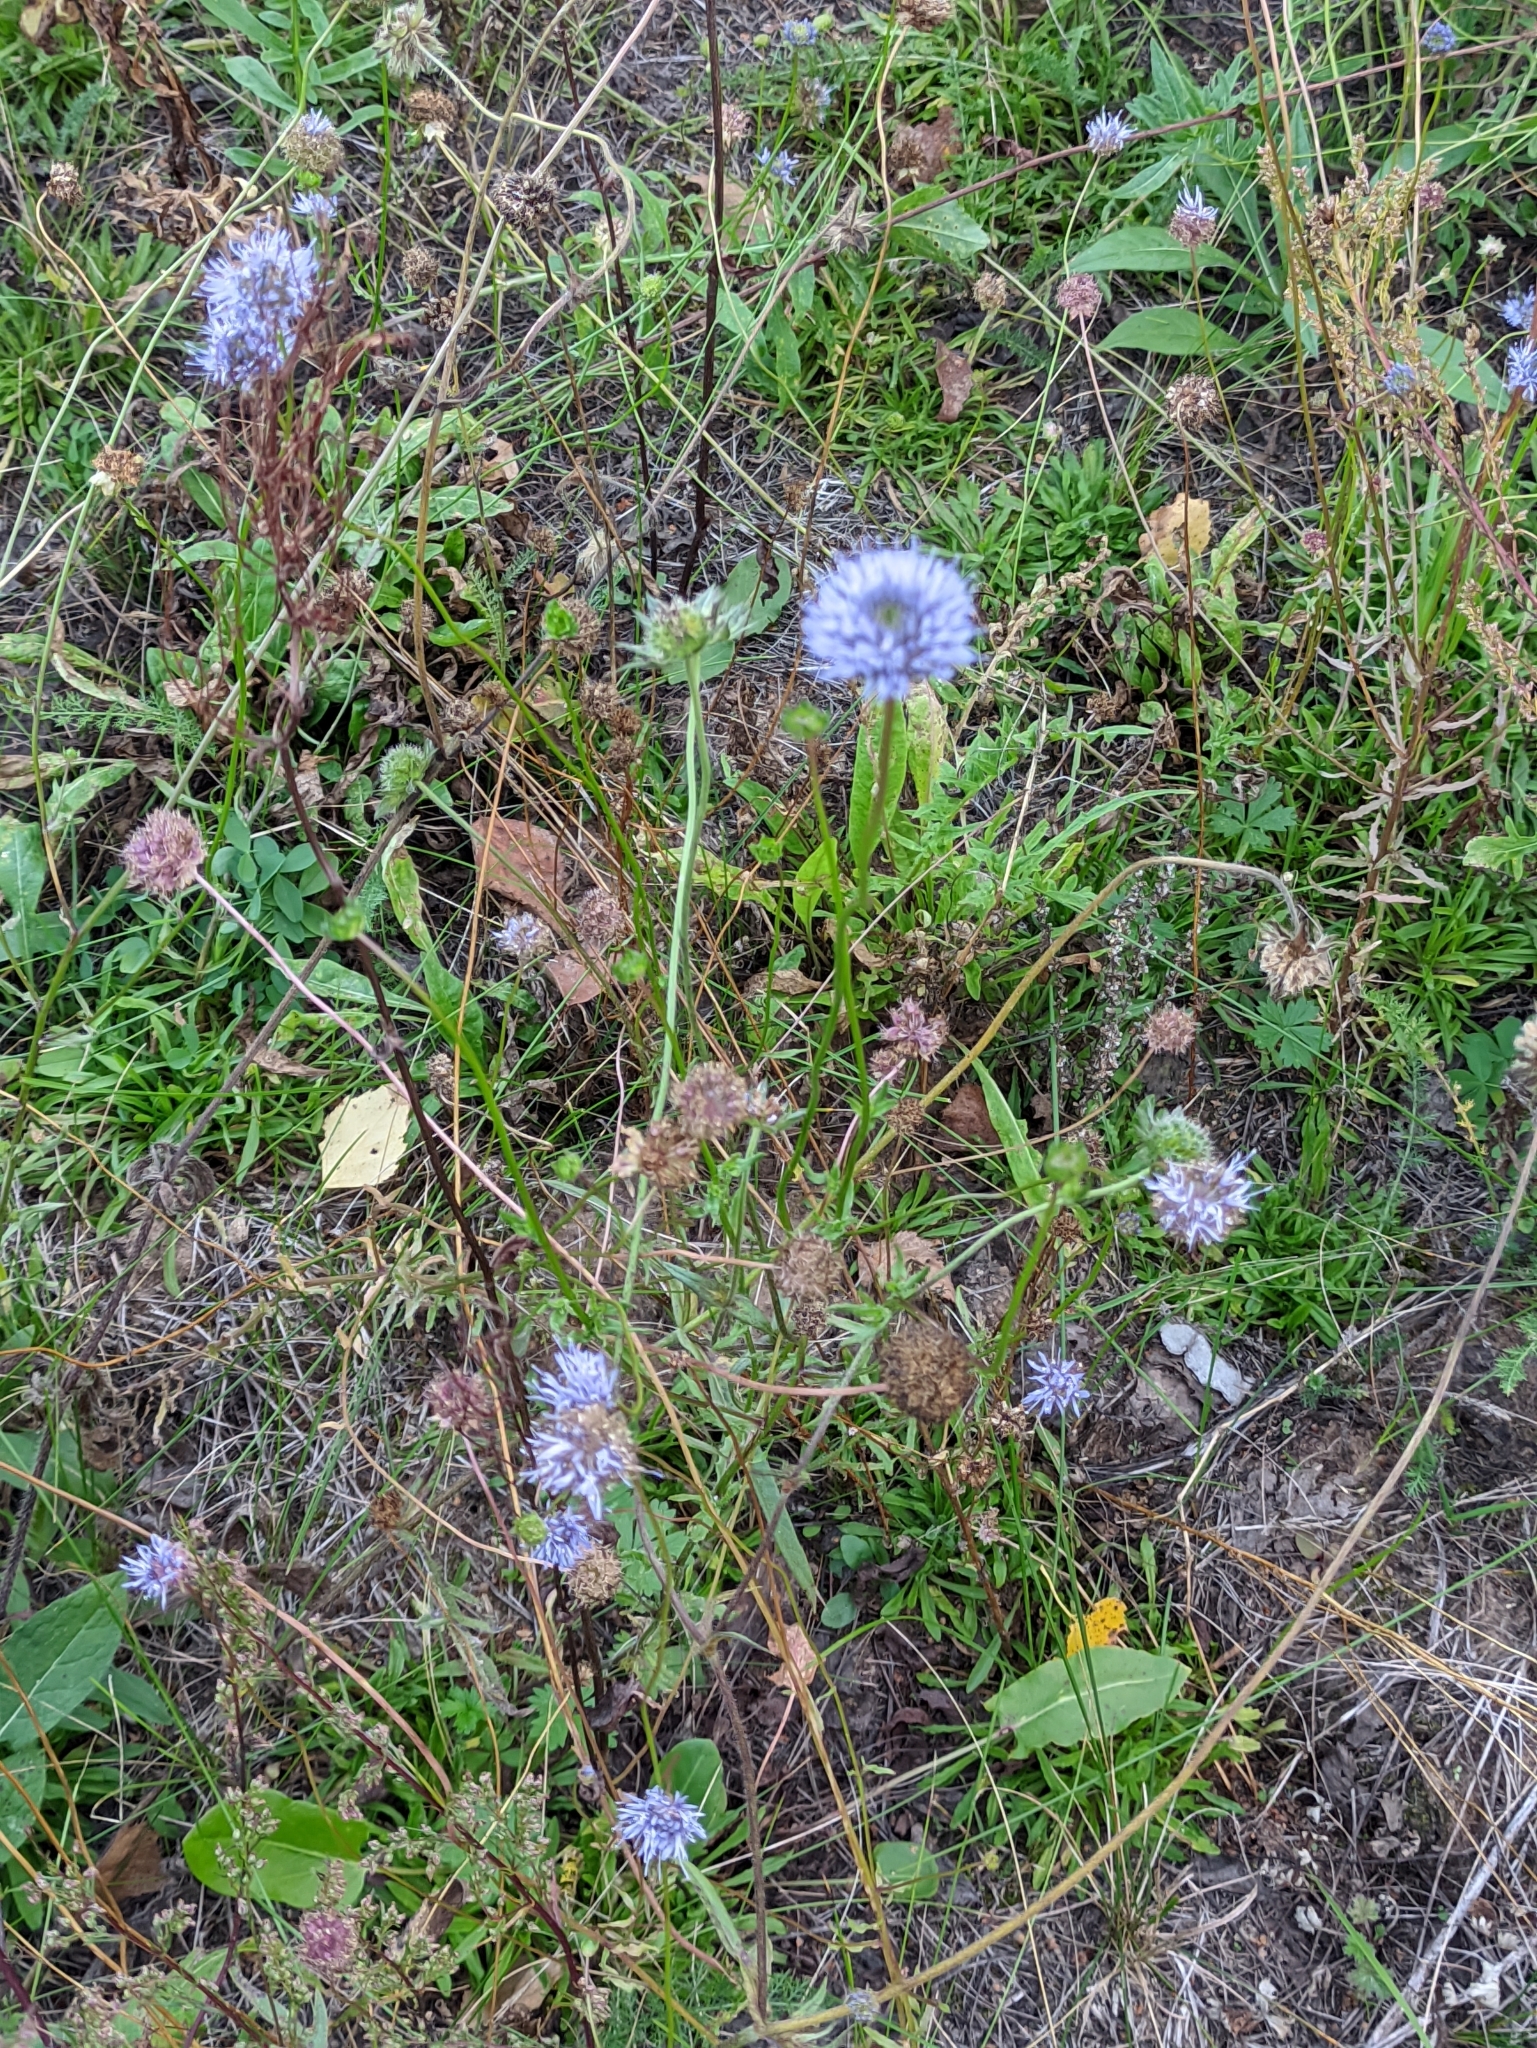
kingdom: Plantae
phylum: Tracheophyta
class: Magnoliopsida
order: Asterales
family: Campanulaceae
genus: Jasione
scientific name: Jasione montana
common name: Sheep's-bit
